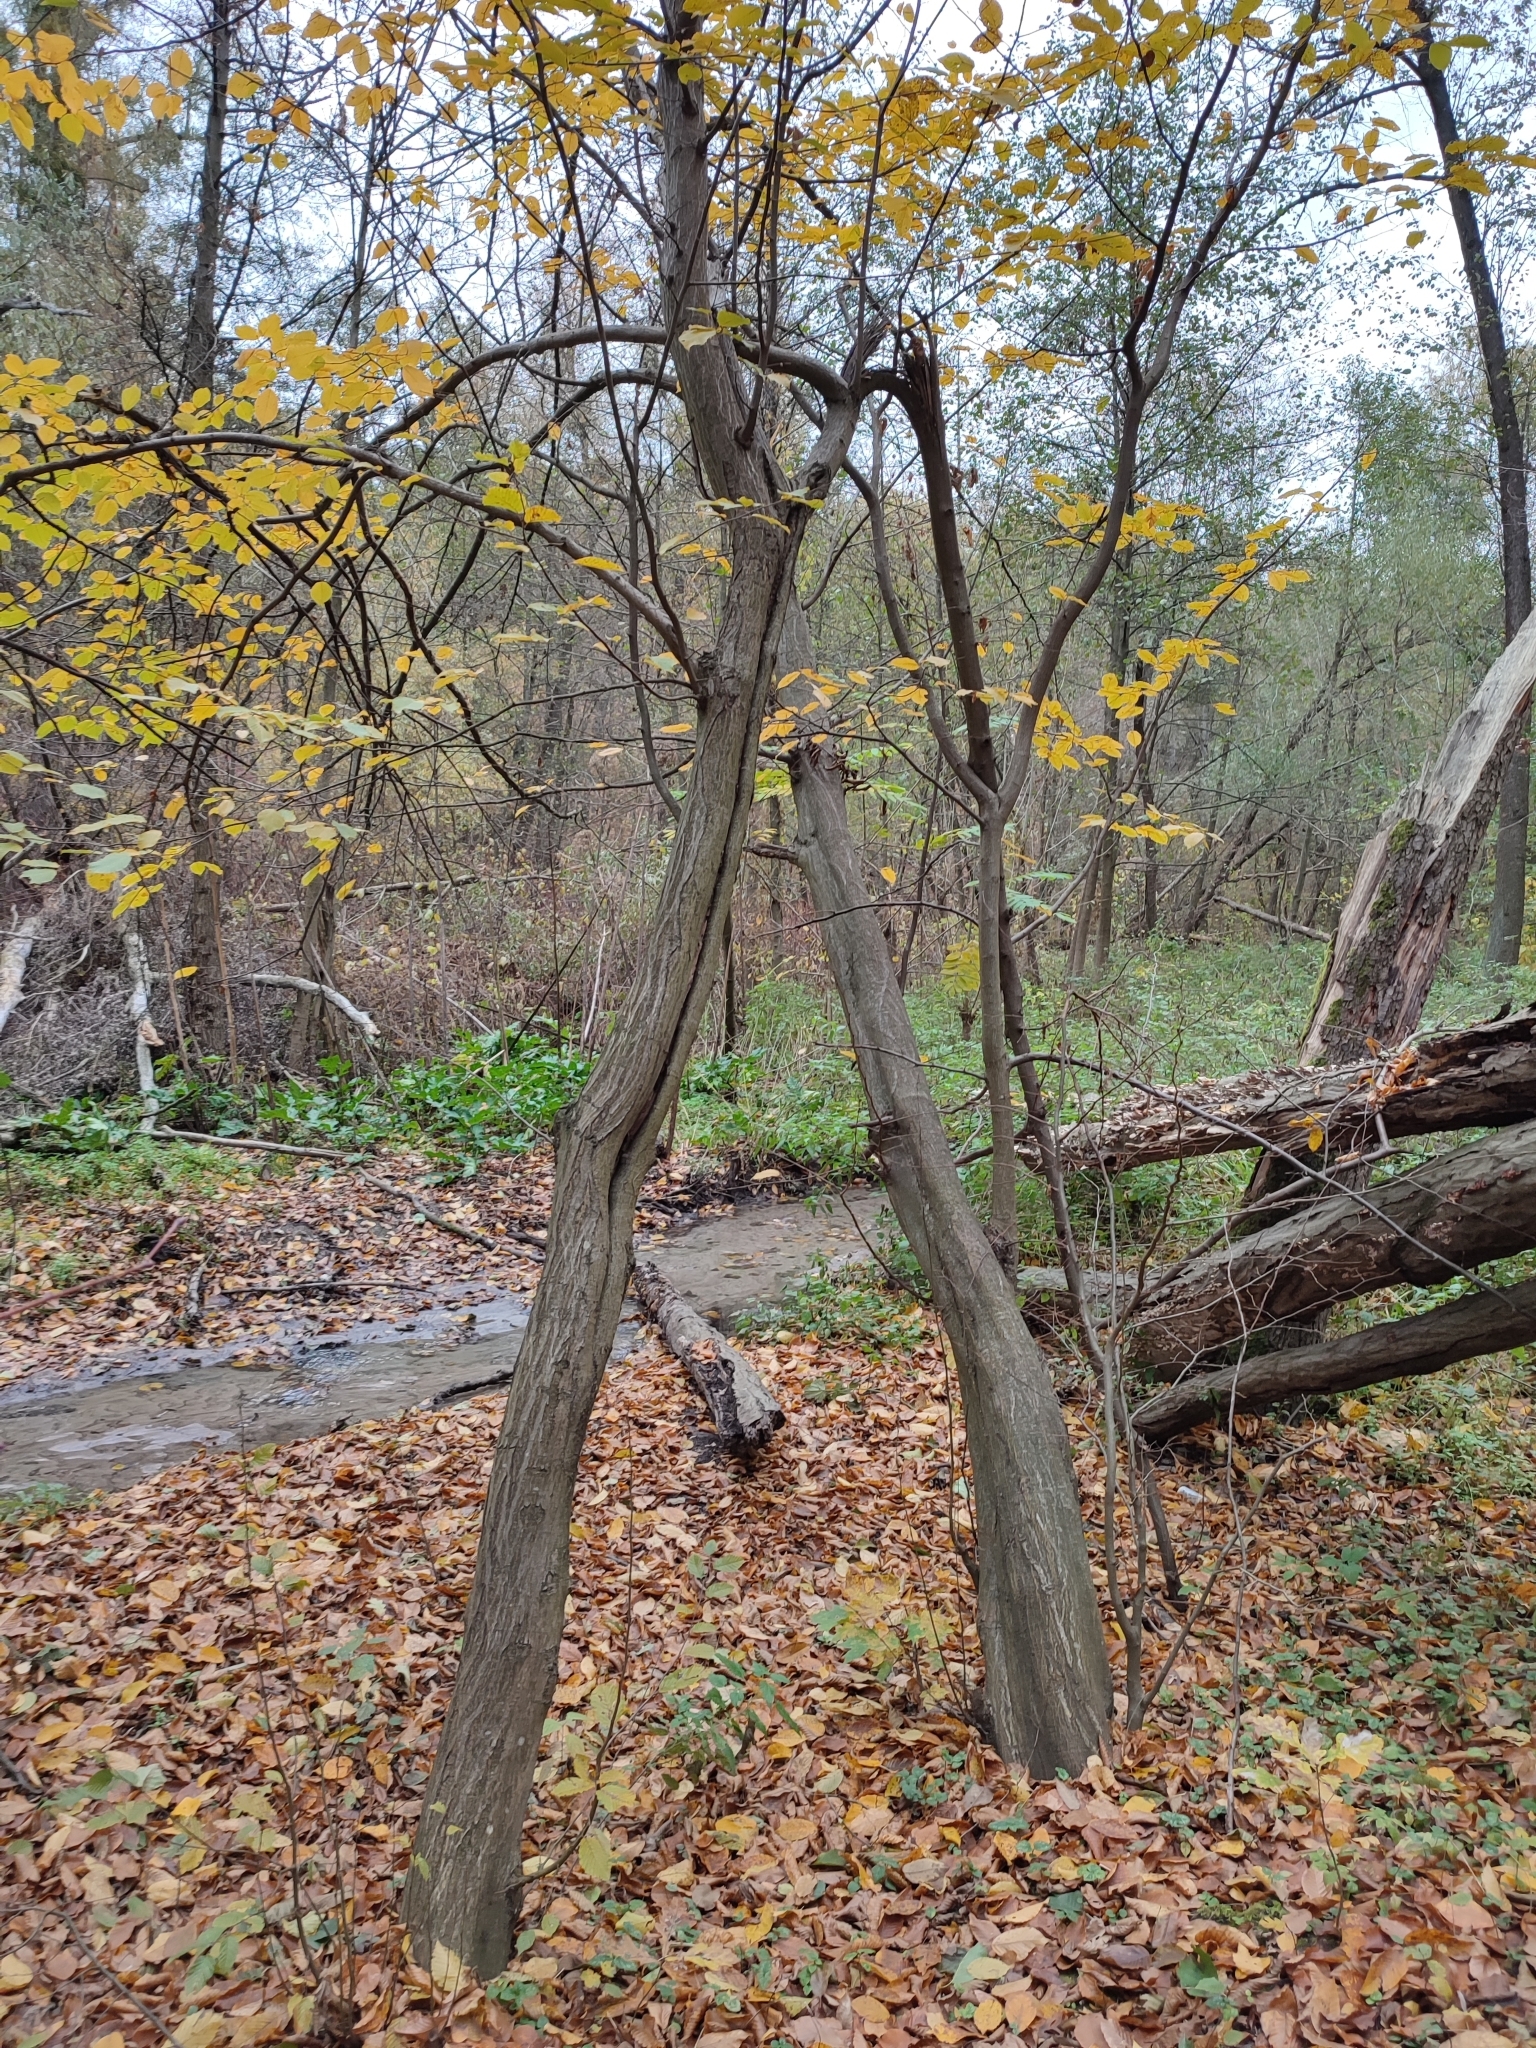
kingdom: Plantae
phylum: Tracheophyta
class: Magnoliopsida
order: Fagales
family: Betulaceae
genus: Carpinus
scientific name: Carpinus betulus
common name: Hornbeam
